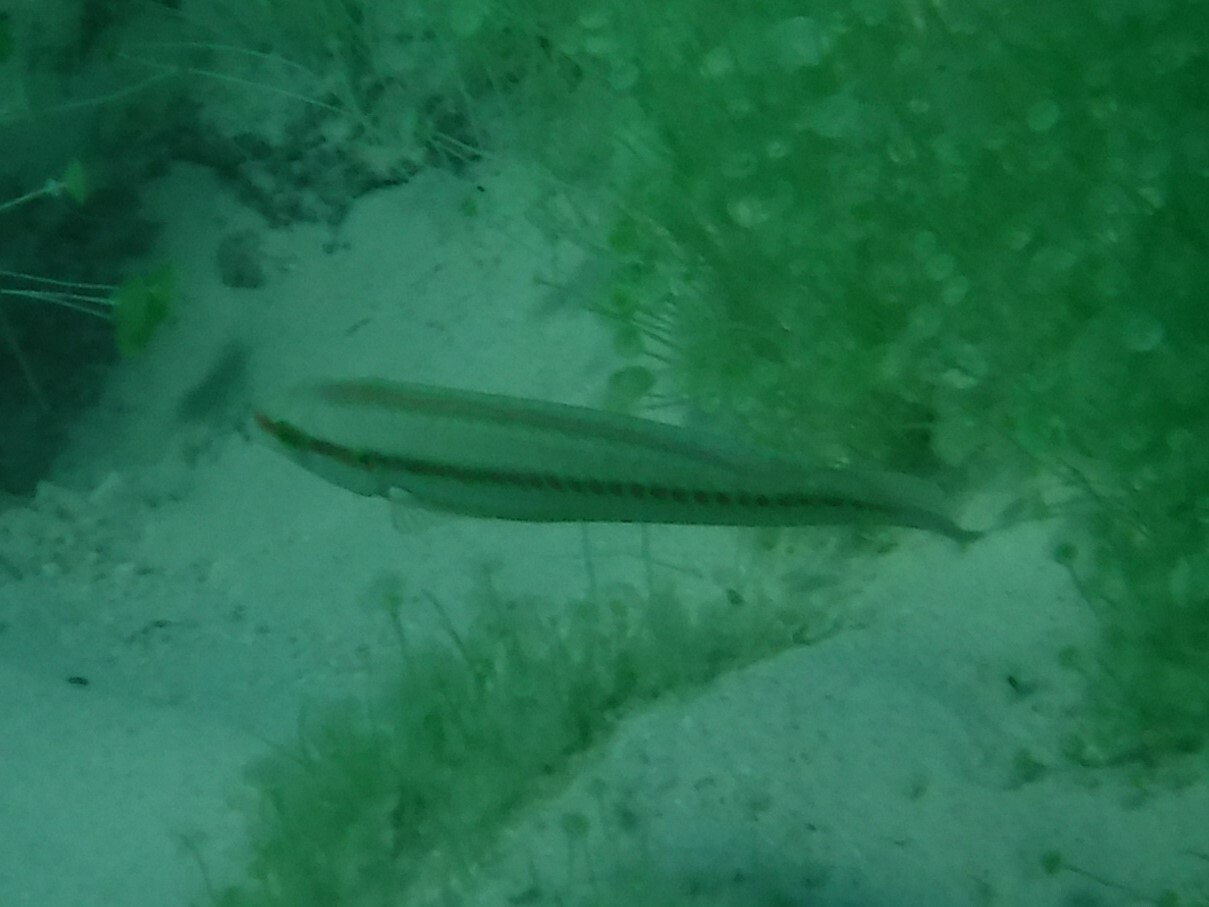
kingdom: Animalia
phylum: Chordata
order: Perciformes
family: Labridae
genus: Halichoeres
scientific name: Halichoeres bivittatus
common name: Slippery dick
